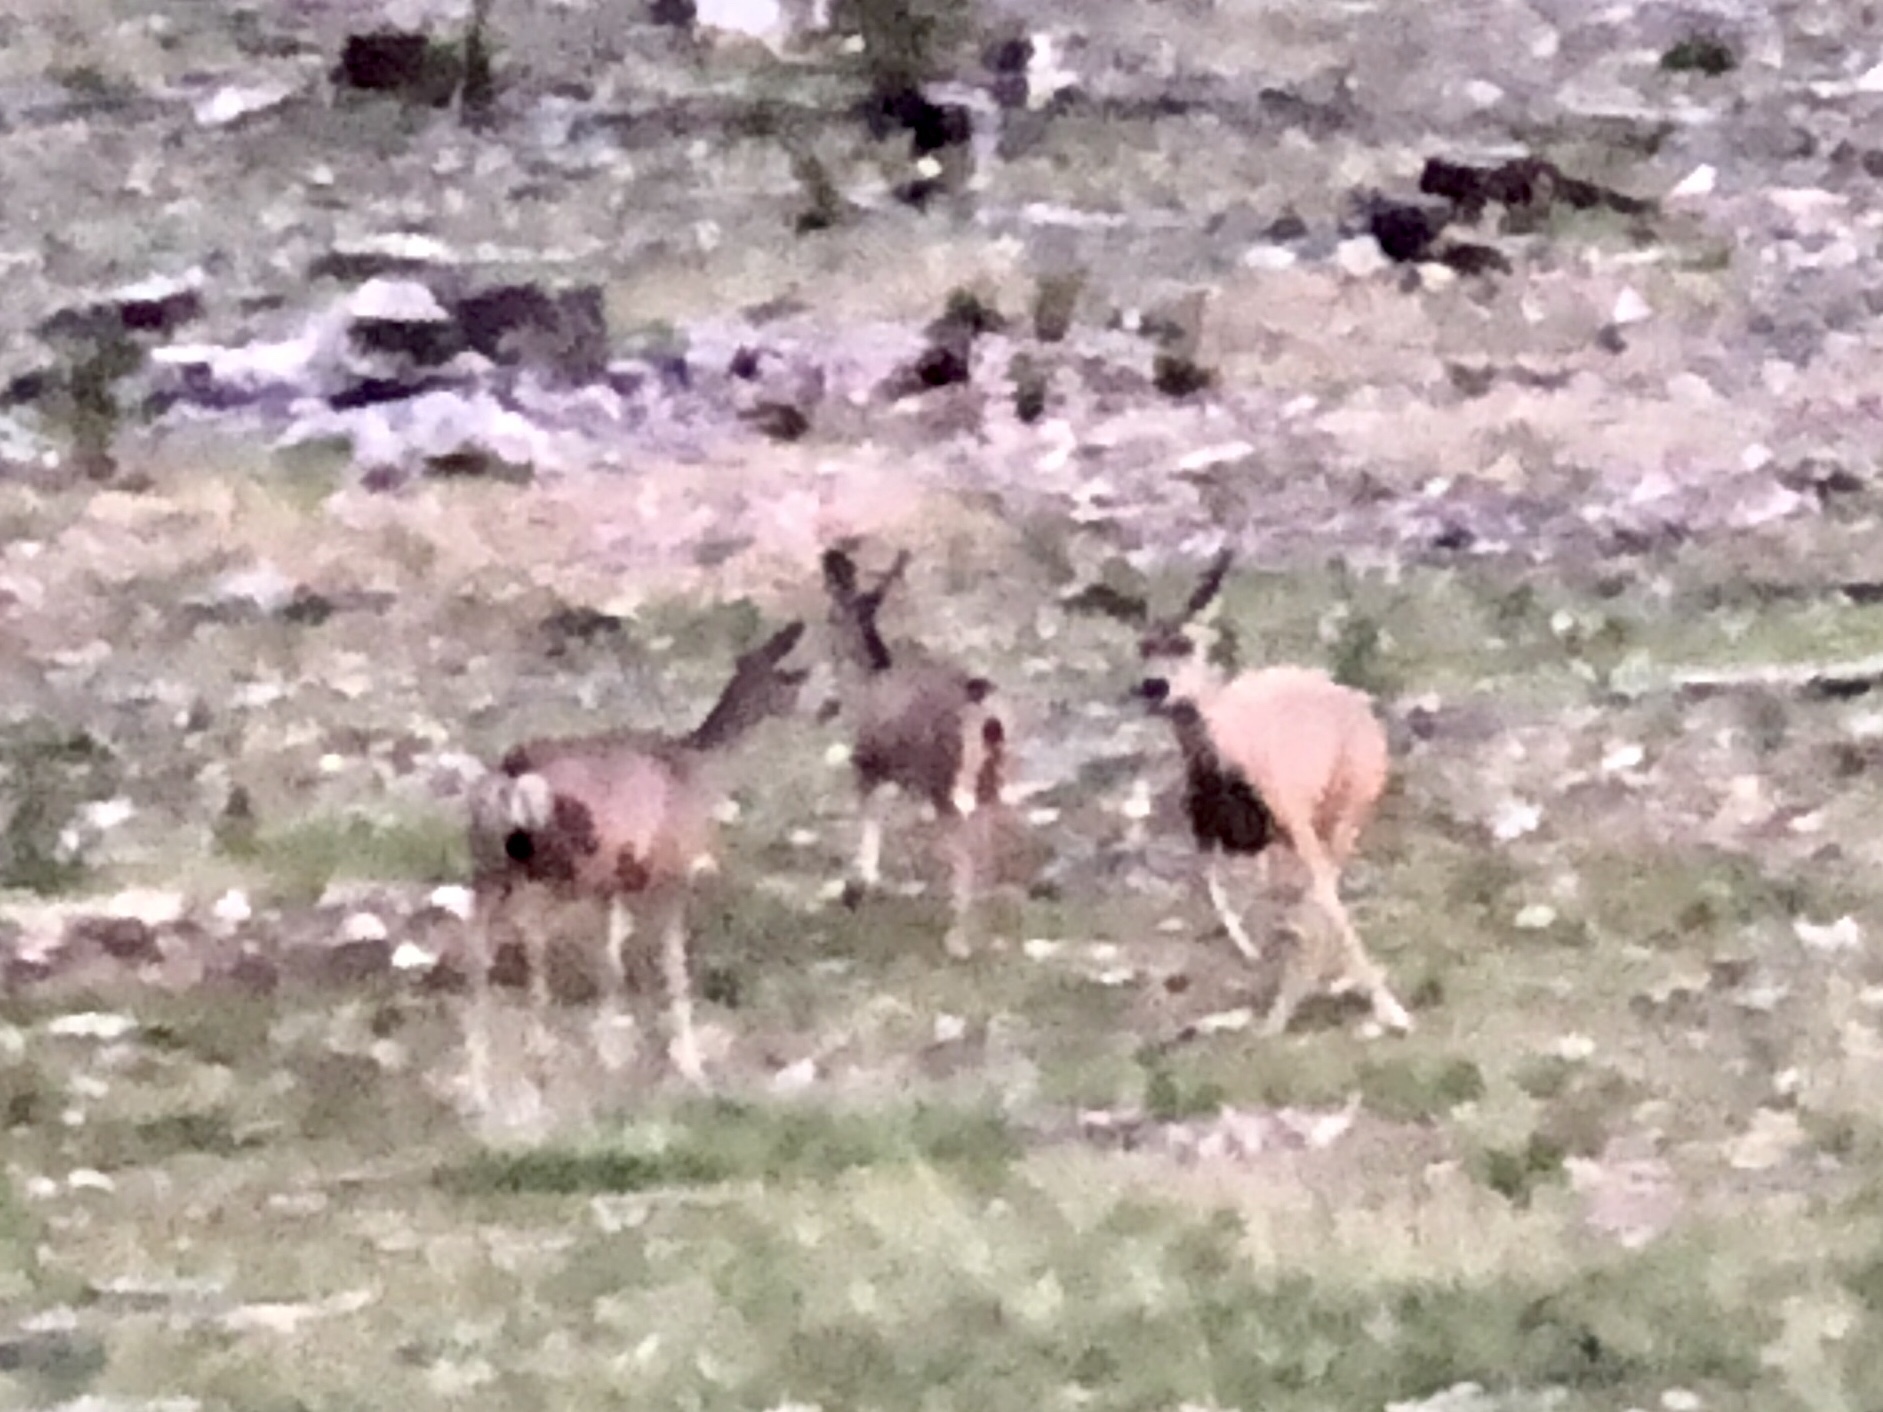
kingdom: Animalia
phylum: Chordata
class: Mammalia
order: Artiodactyla
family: Cervidae
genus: Odocoileus
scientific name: Odocoileus hemionus
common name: Mule deer
